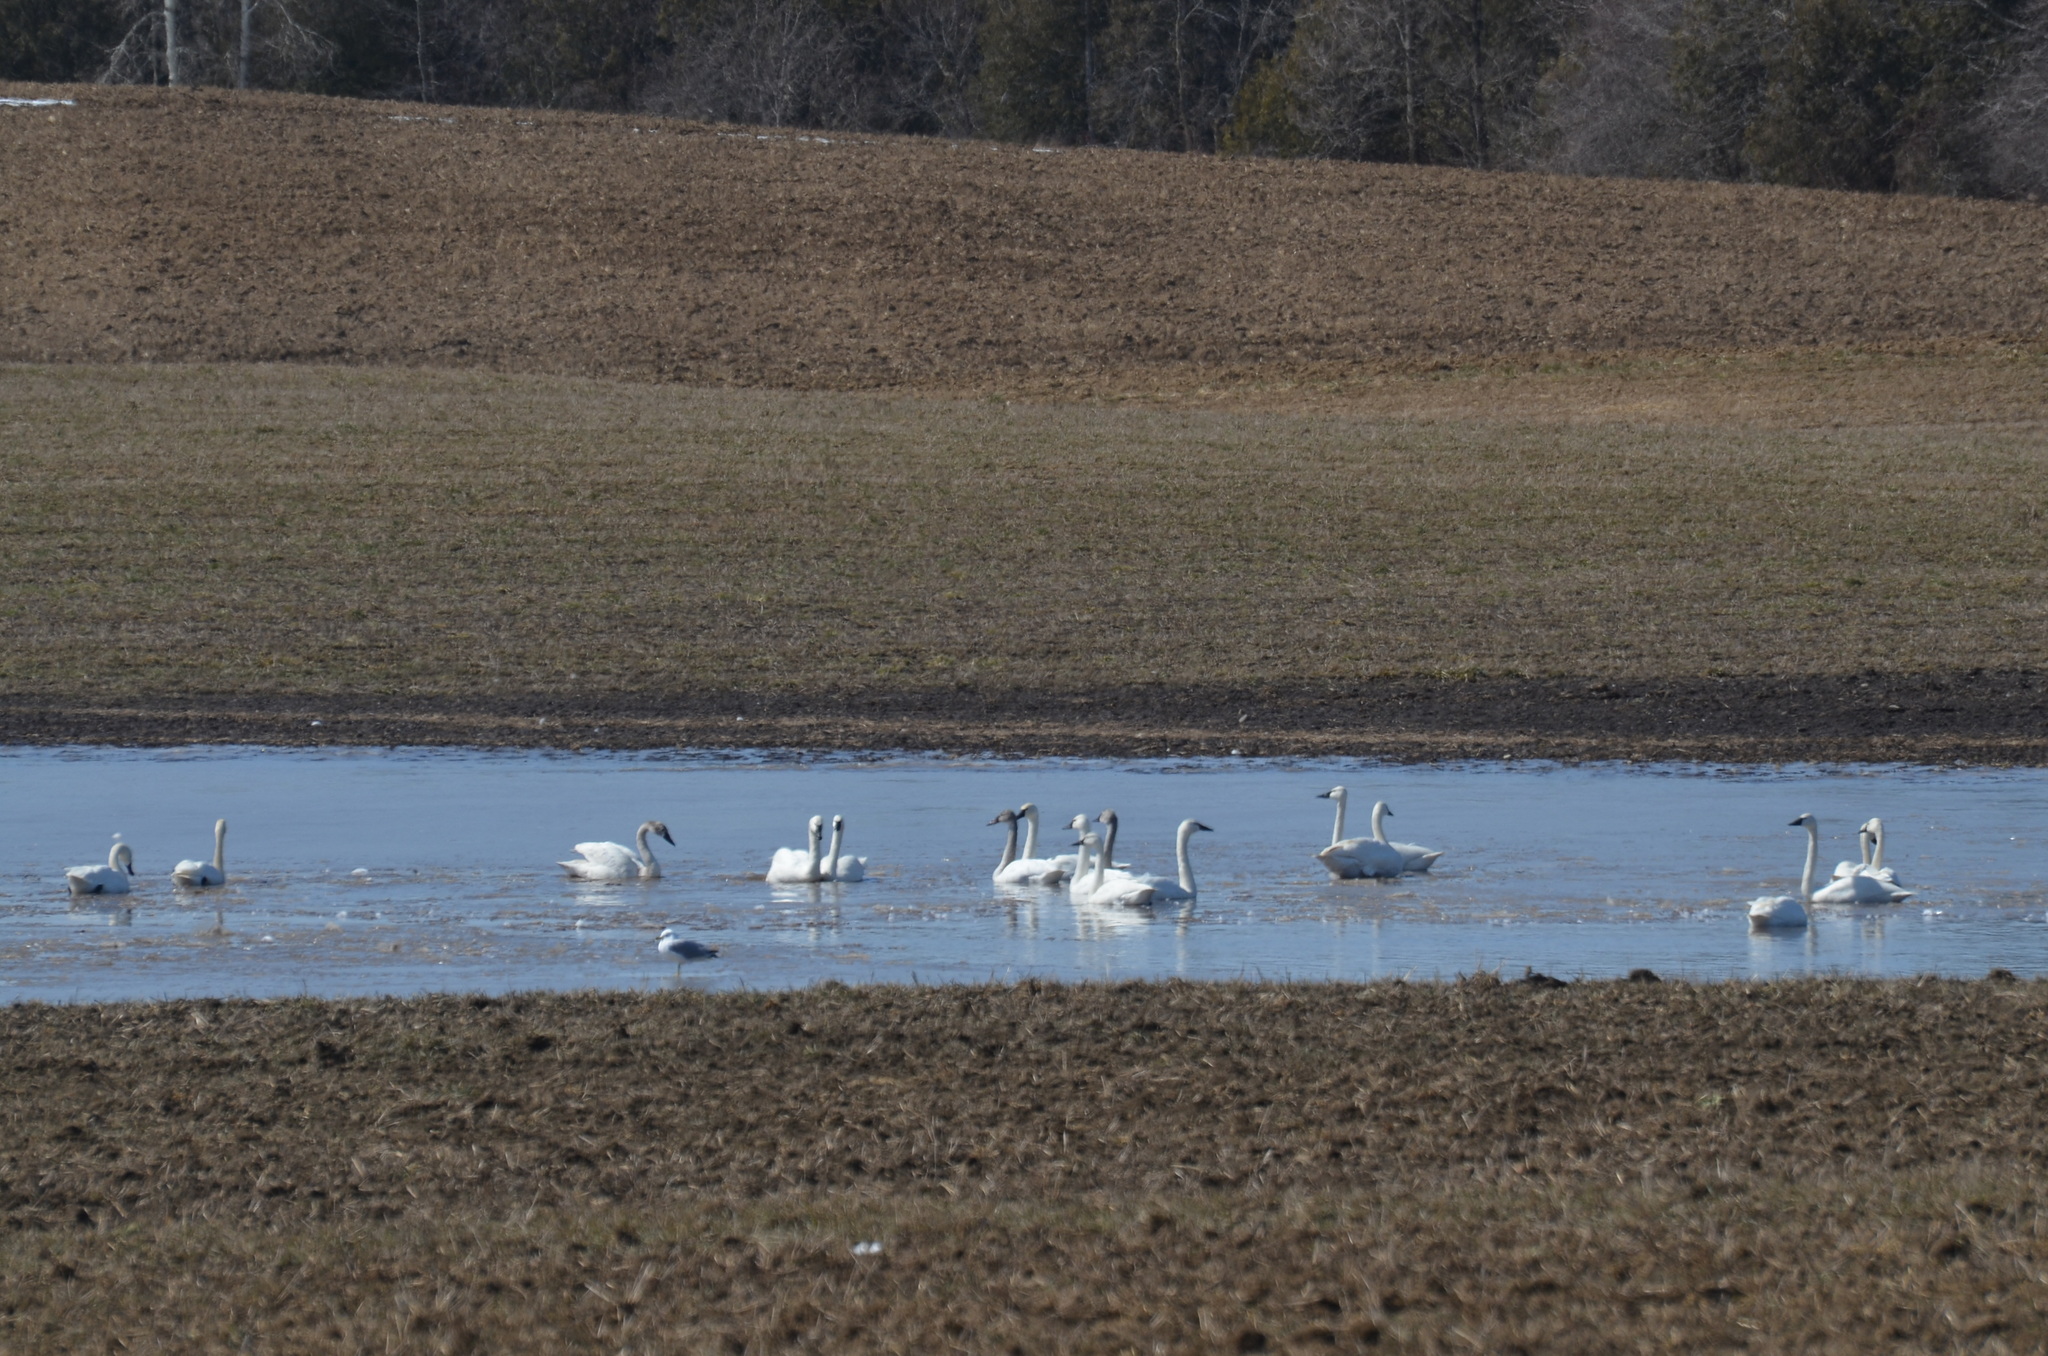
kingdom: Animalia
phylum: Chordata
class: Aves
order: Anseriformes
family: Anatidae
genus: Cygnus
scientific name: Cygnus columbianus
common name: Tundra swan
